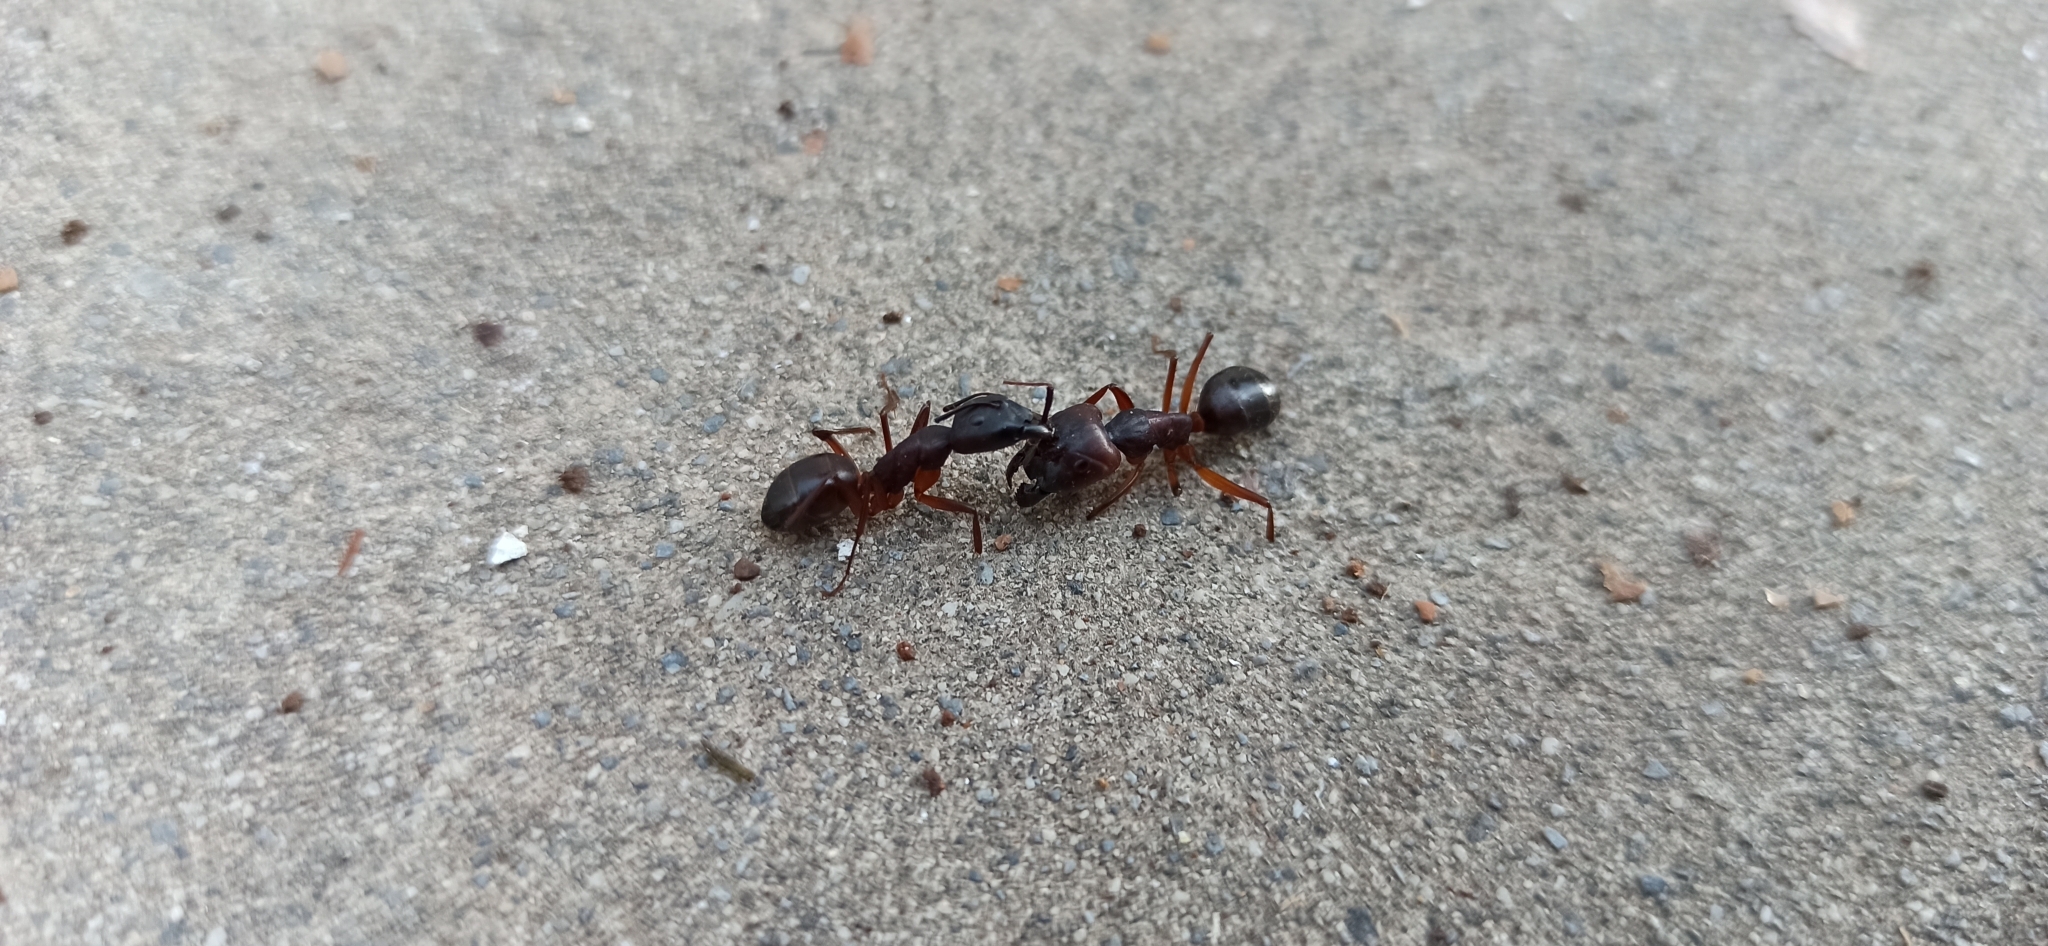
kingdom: Animalia
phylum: Arthropoda
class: Insecta
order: Hymenoptera
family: Formicidae
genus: Camponotus
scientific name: Camponotus cecconii
